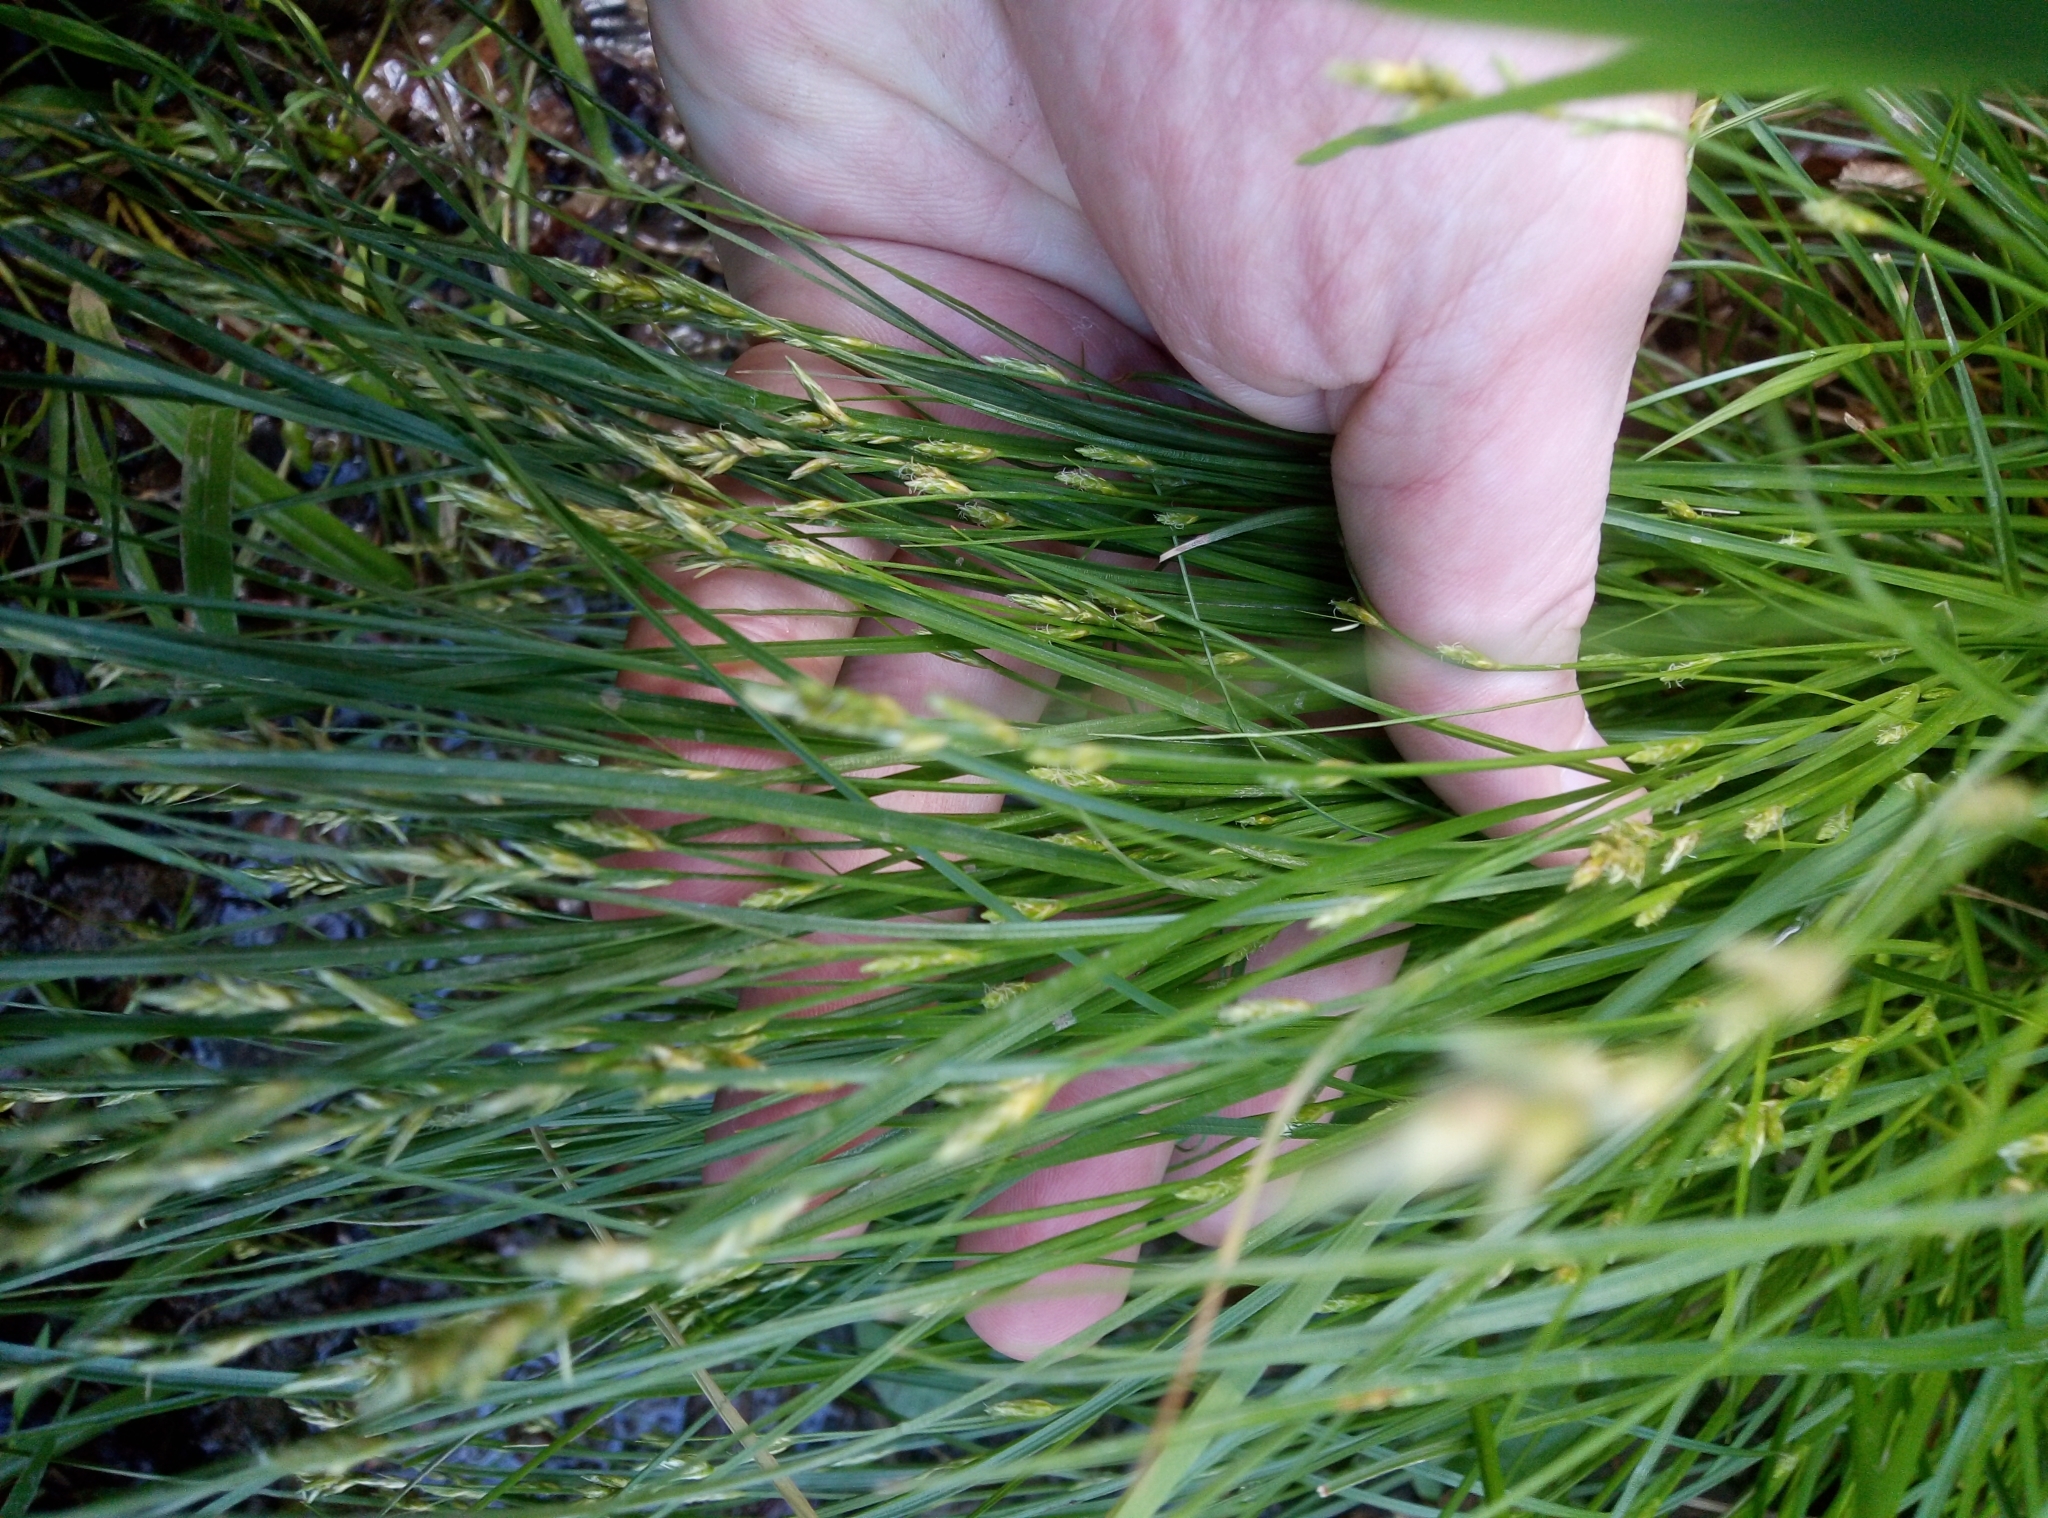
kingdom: Plantae
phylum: Tracheophyta
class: Liliopsida
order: Poales
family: Cyperaceae
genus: Carex
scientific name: Carex brizoides
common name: Quaking-grass sedge
